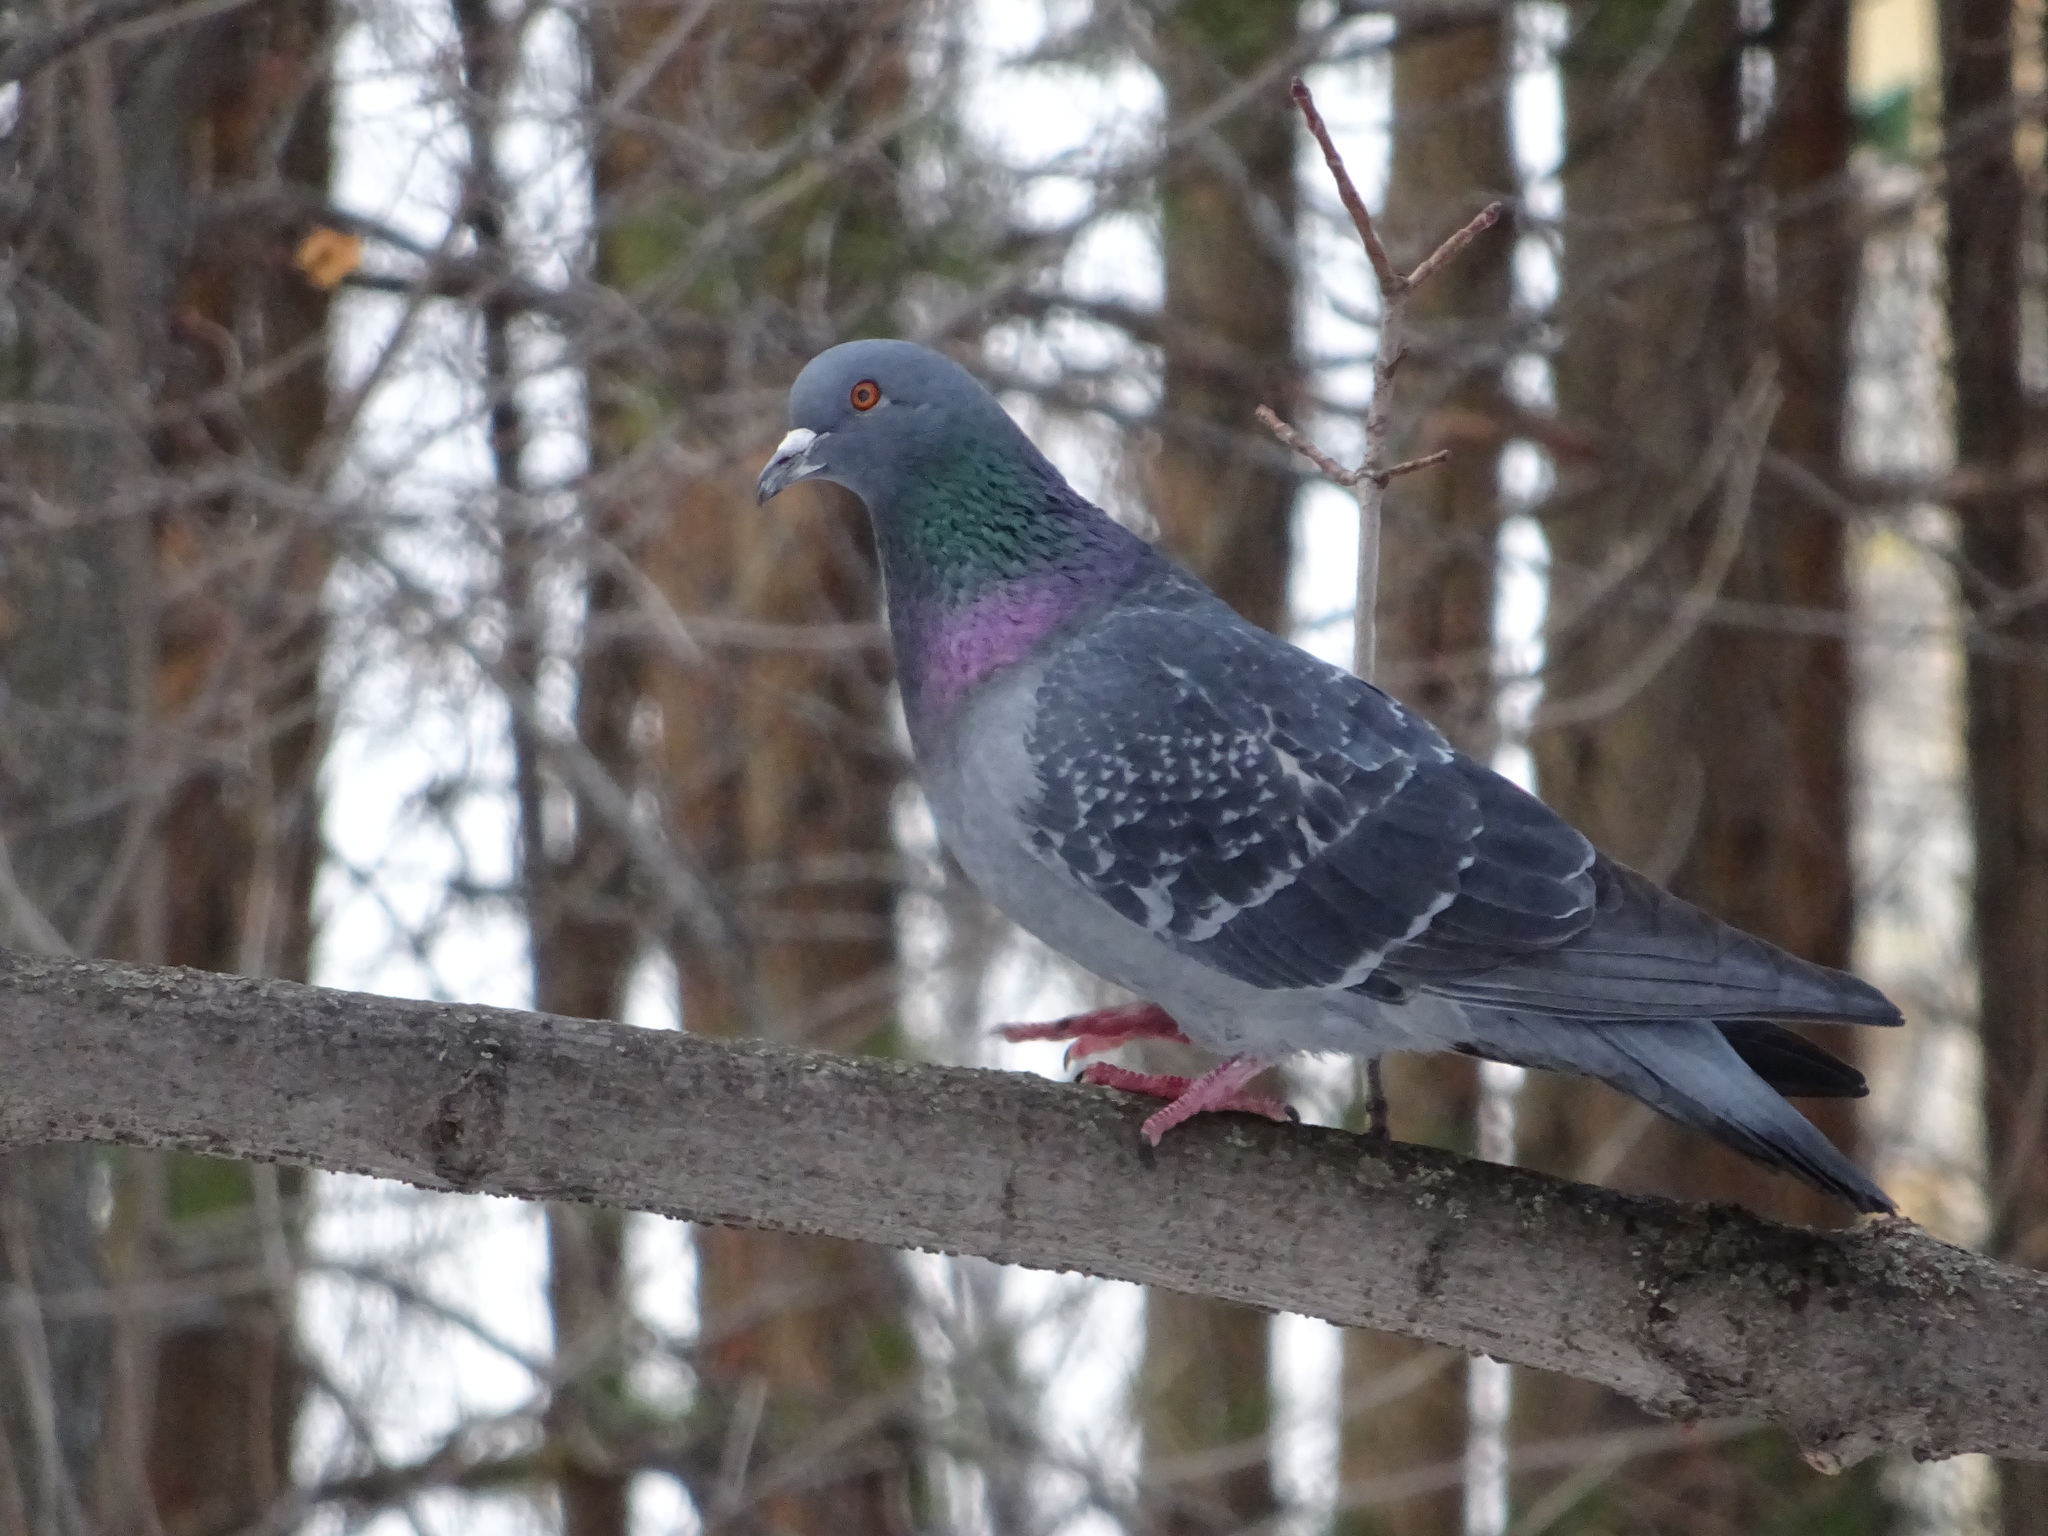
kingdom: Animalia
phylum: Chordata
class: Aves
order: Columbiformes
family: Columbidae
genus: Columba
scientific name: Columba livia
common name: Rock pigeon
